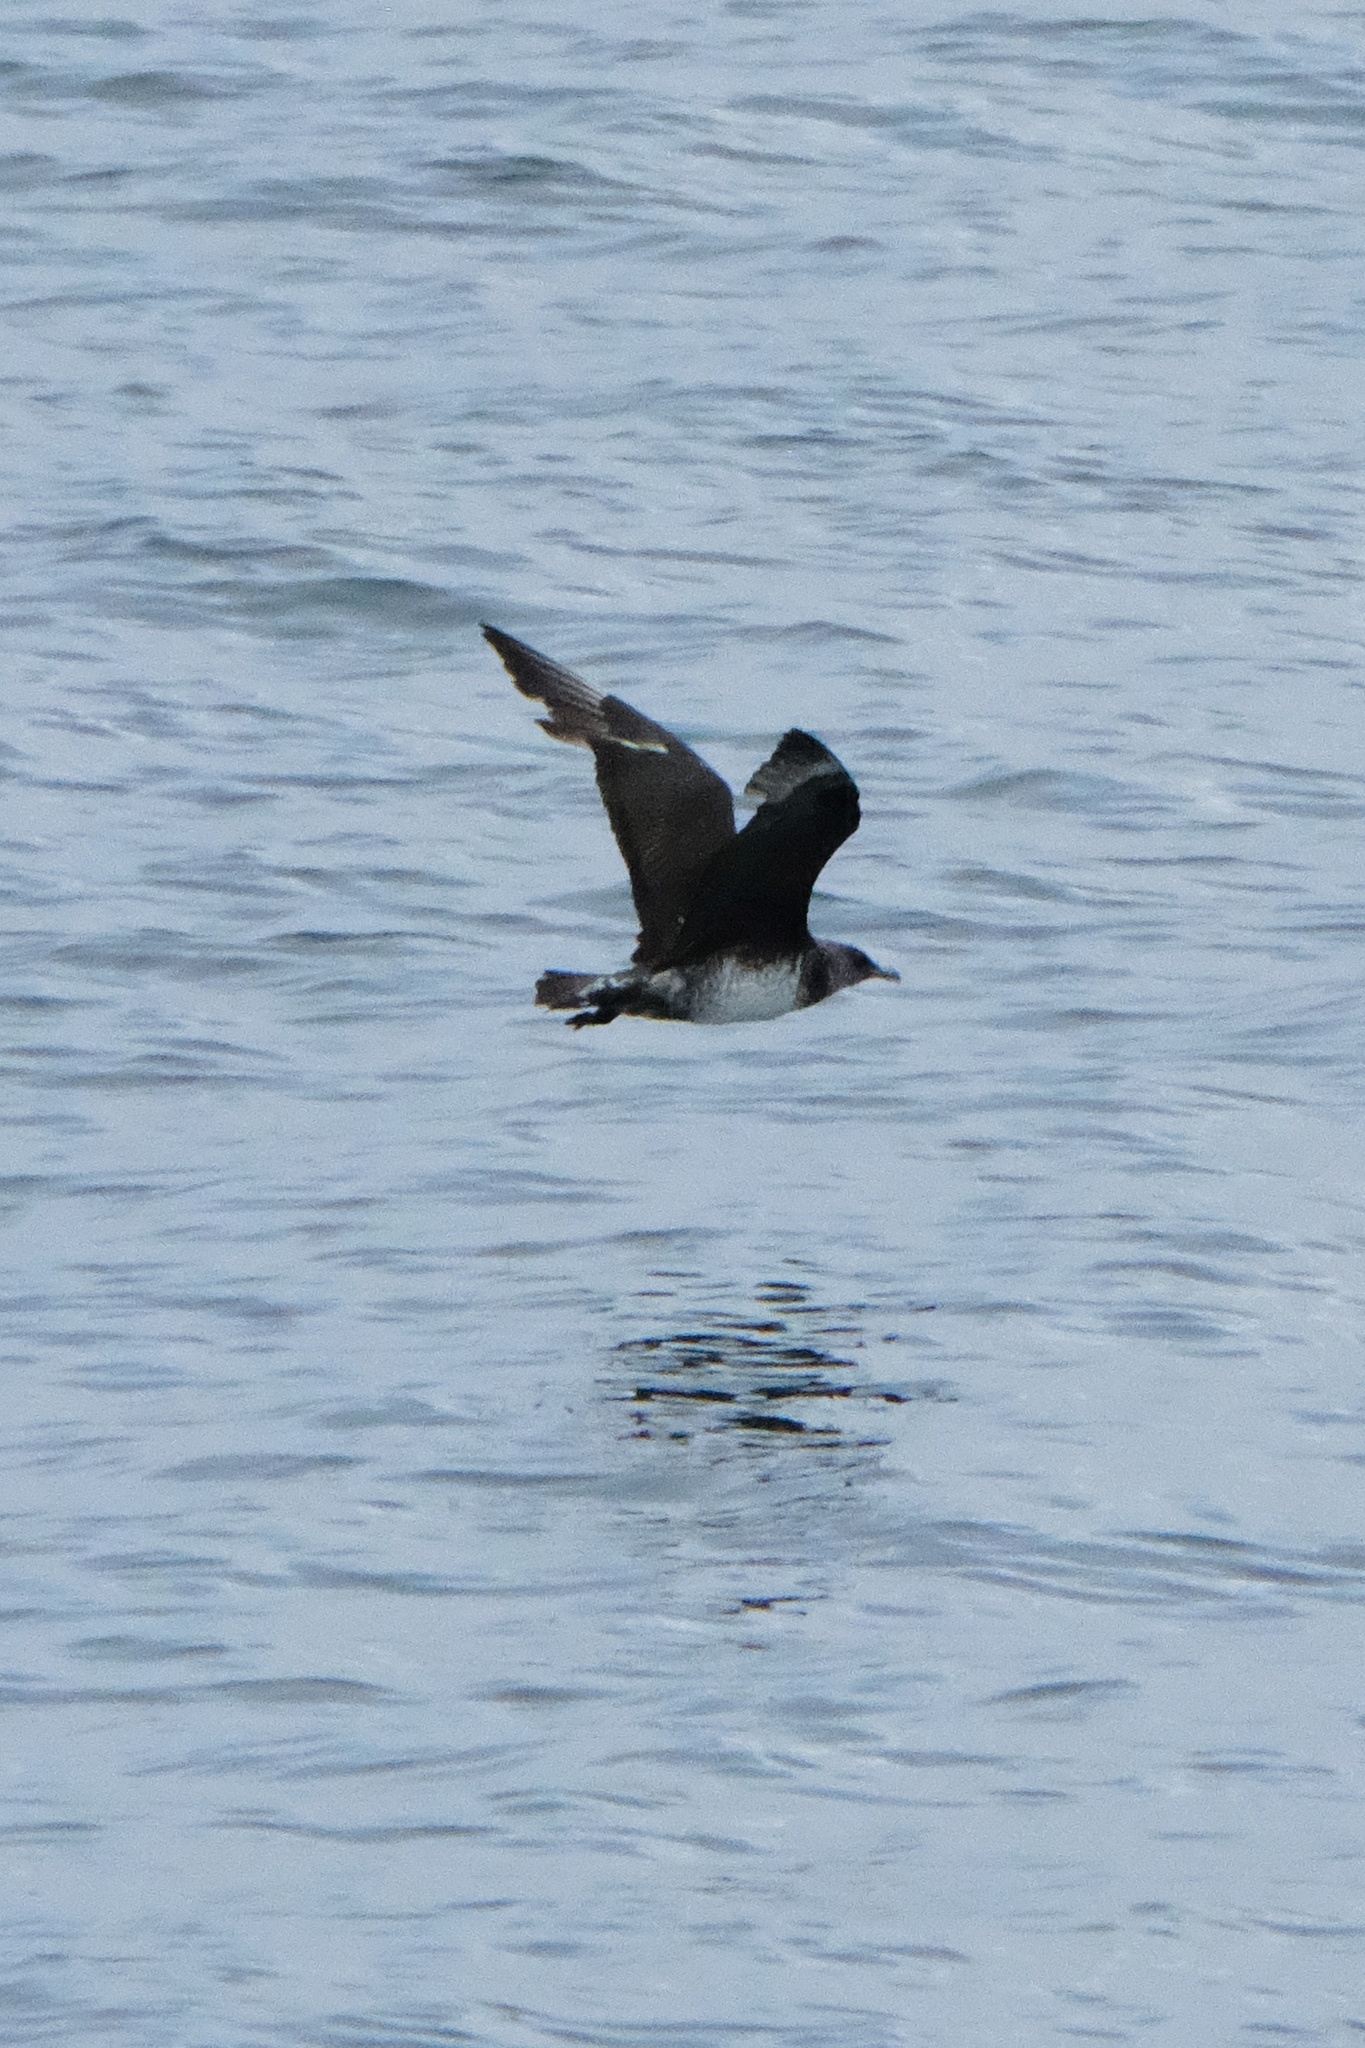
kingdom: Animalia
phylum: Chordata
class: Aves
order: Charadriiformes
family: Stercorariidae
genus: Stercorarius
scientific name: Stercorarius pomarinus
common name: Pomarine jaeger
